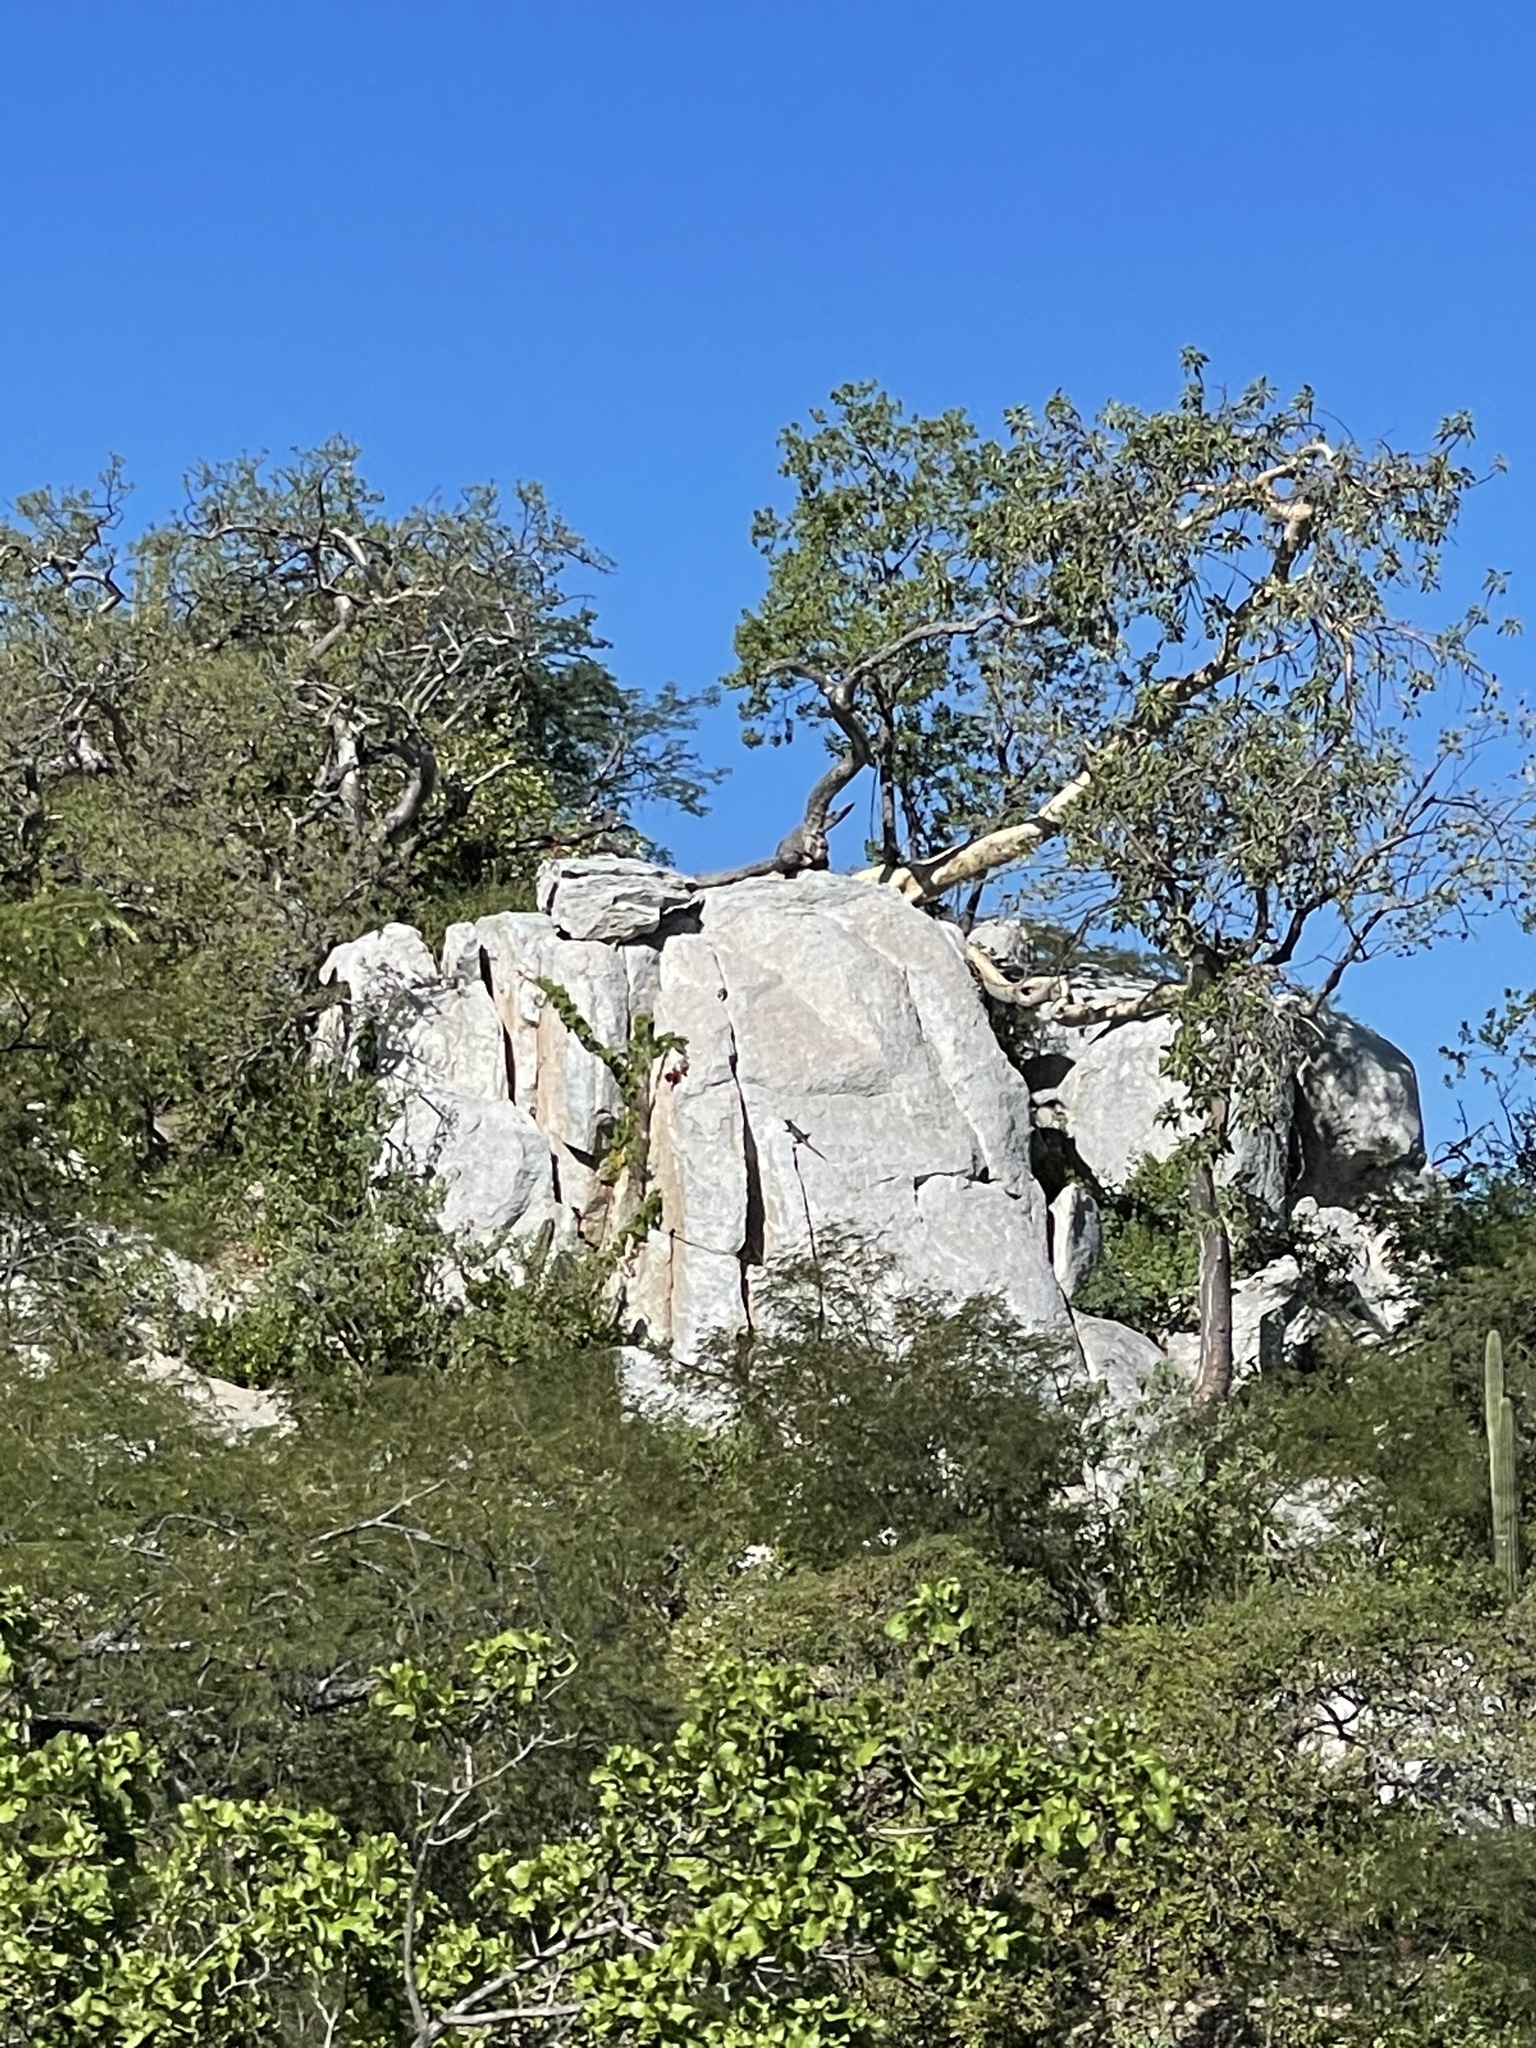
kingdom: Animalia
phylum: Chordata
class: Squamata
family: Iguanidae
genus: Ctenosaura
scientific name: Ctenosaura hemilopha
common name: Baja california spiny- tailed iguana
